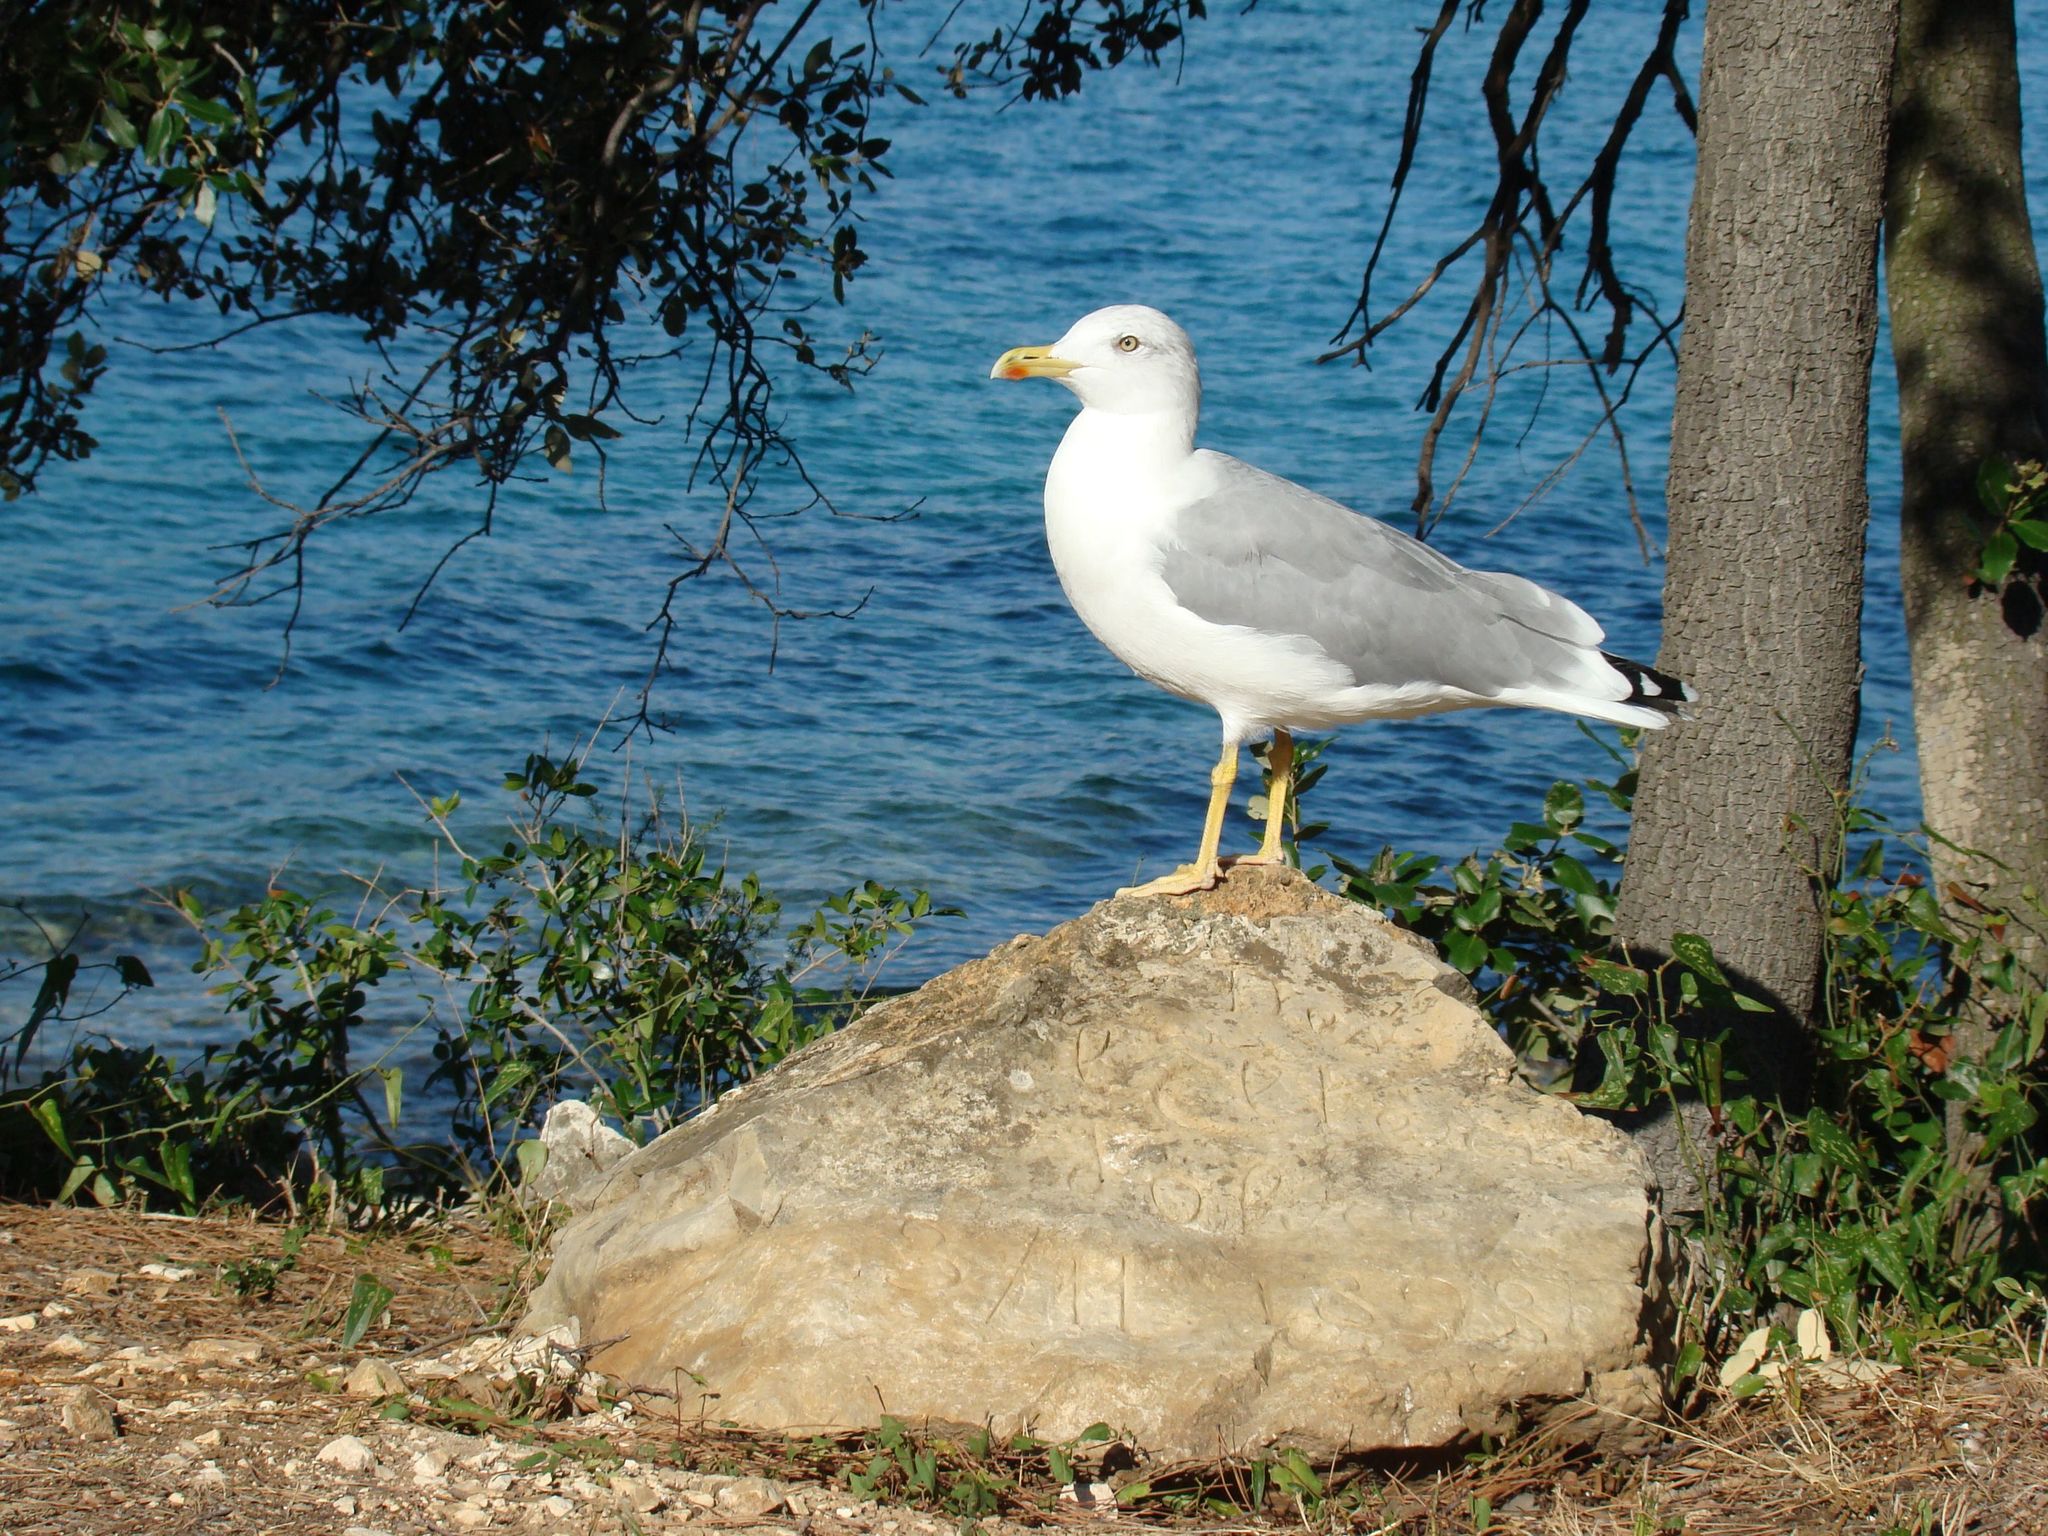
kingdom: Animalia
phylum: Chordata
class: Aves
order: Charadriiformes
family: Laridae
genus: Larus
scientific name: Larus michahellis
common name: Yellow-legged gull
